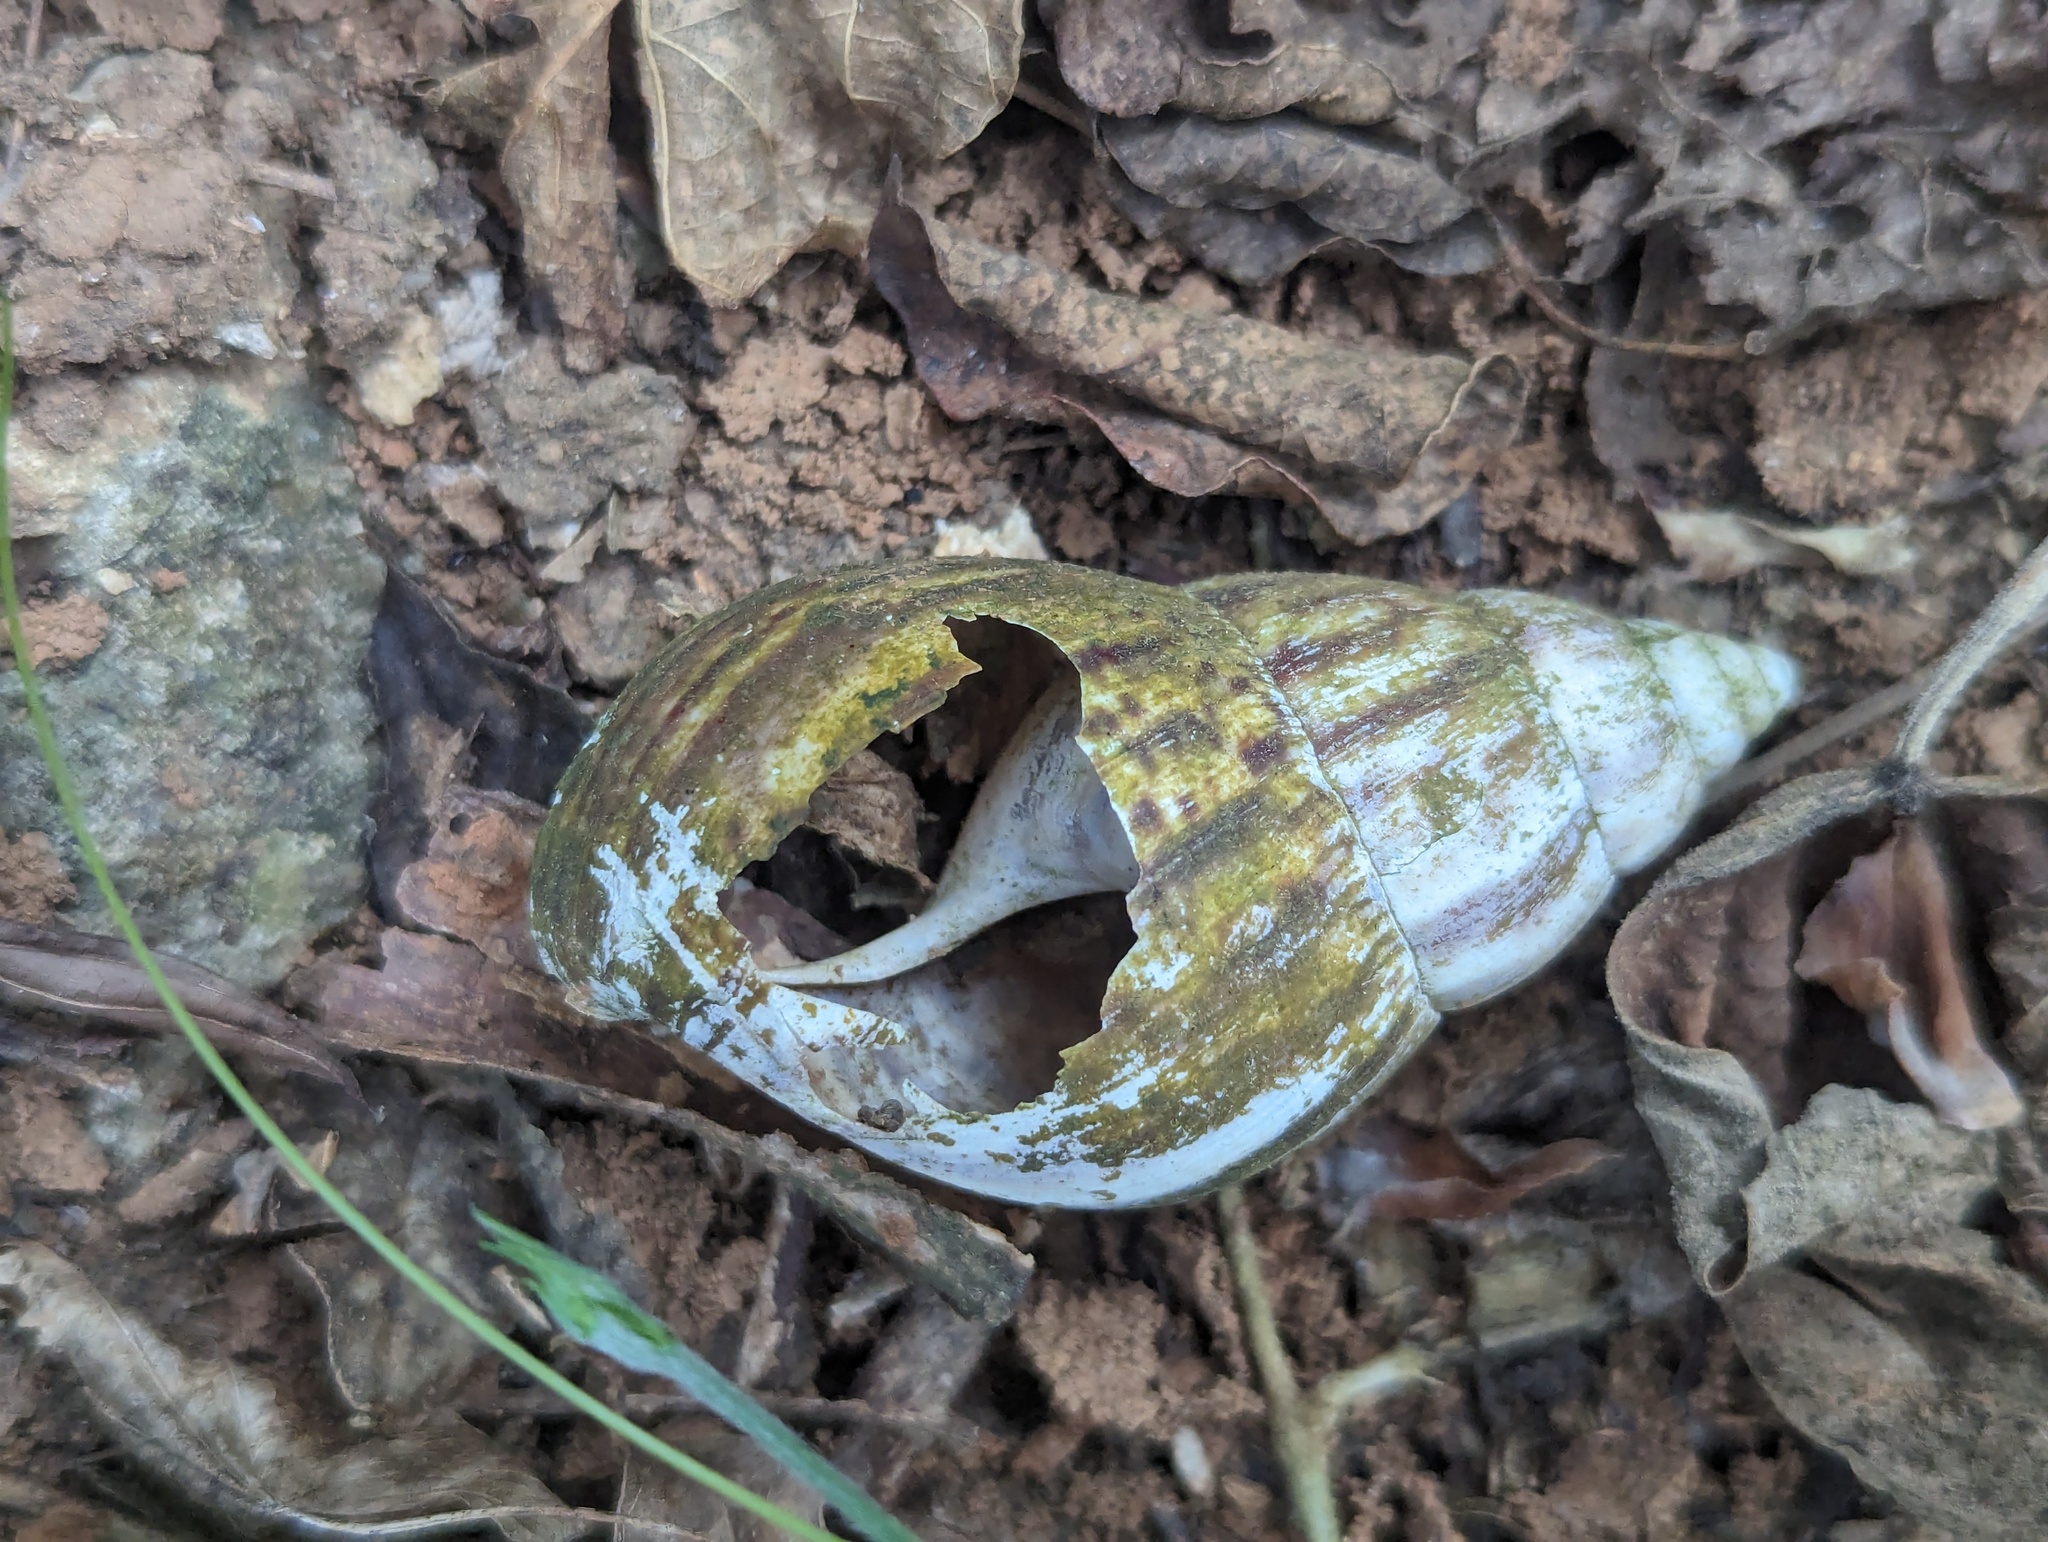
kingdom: Animalia
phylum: Mollusca
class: Gastropoda
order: Stylommatophora
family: Achatinidae
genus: Lissachatina
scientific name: Lissachatina fulica
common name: Giant african snail
